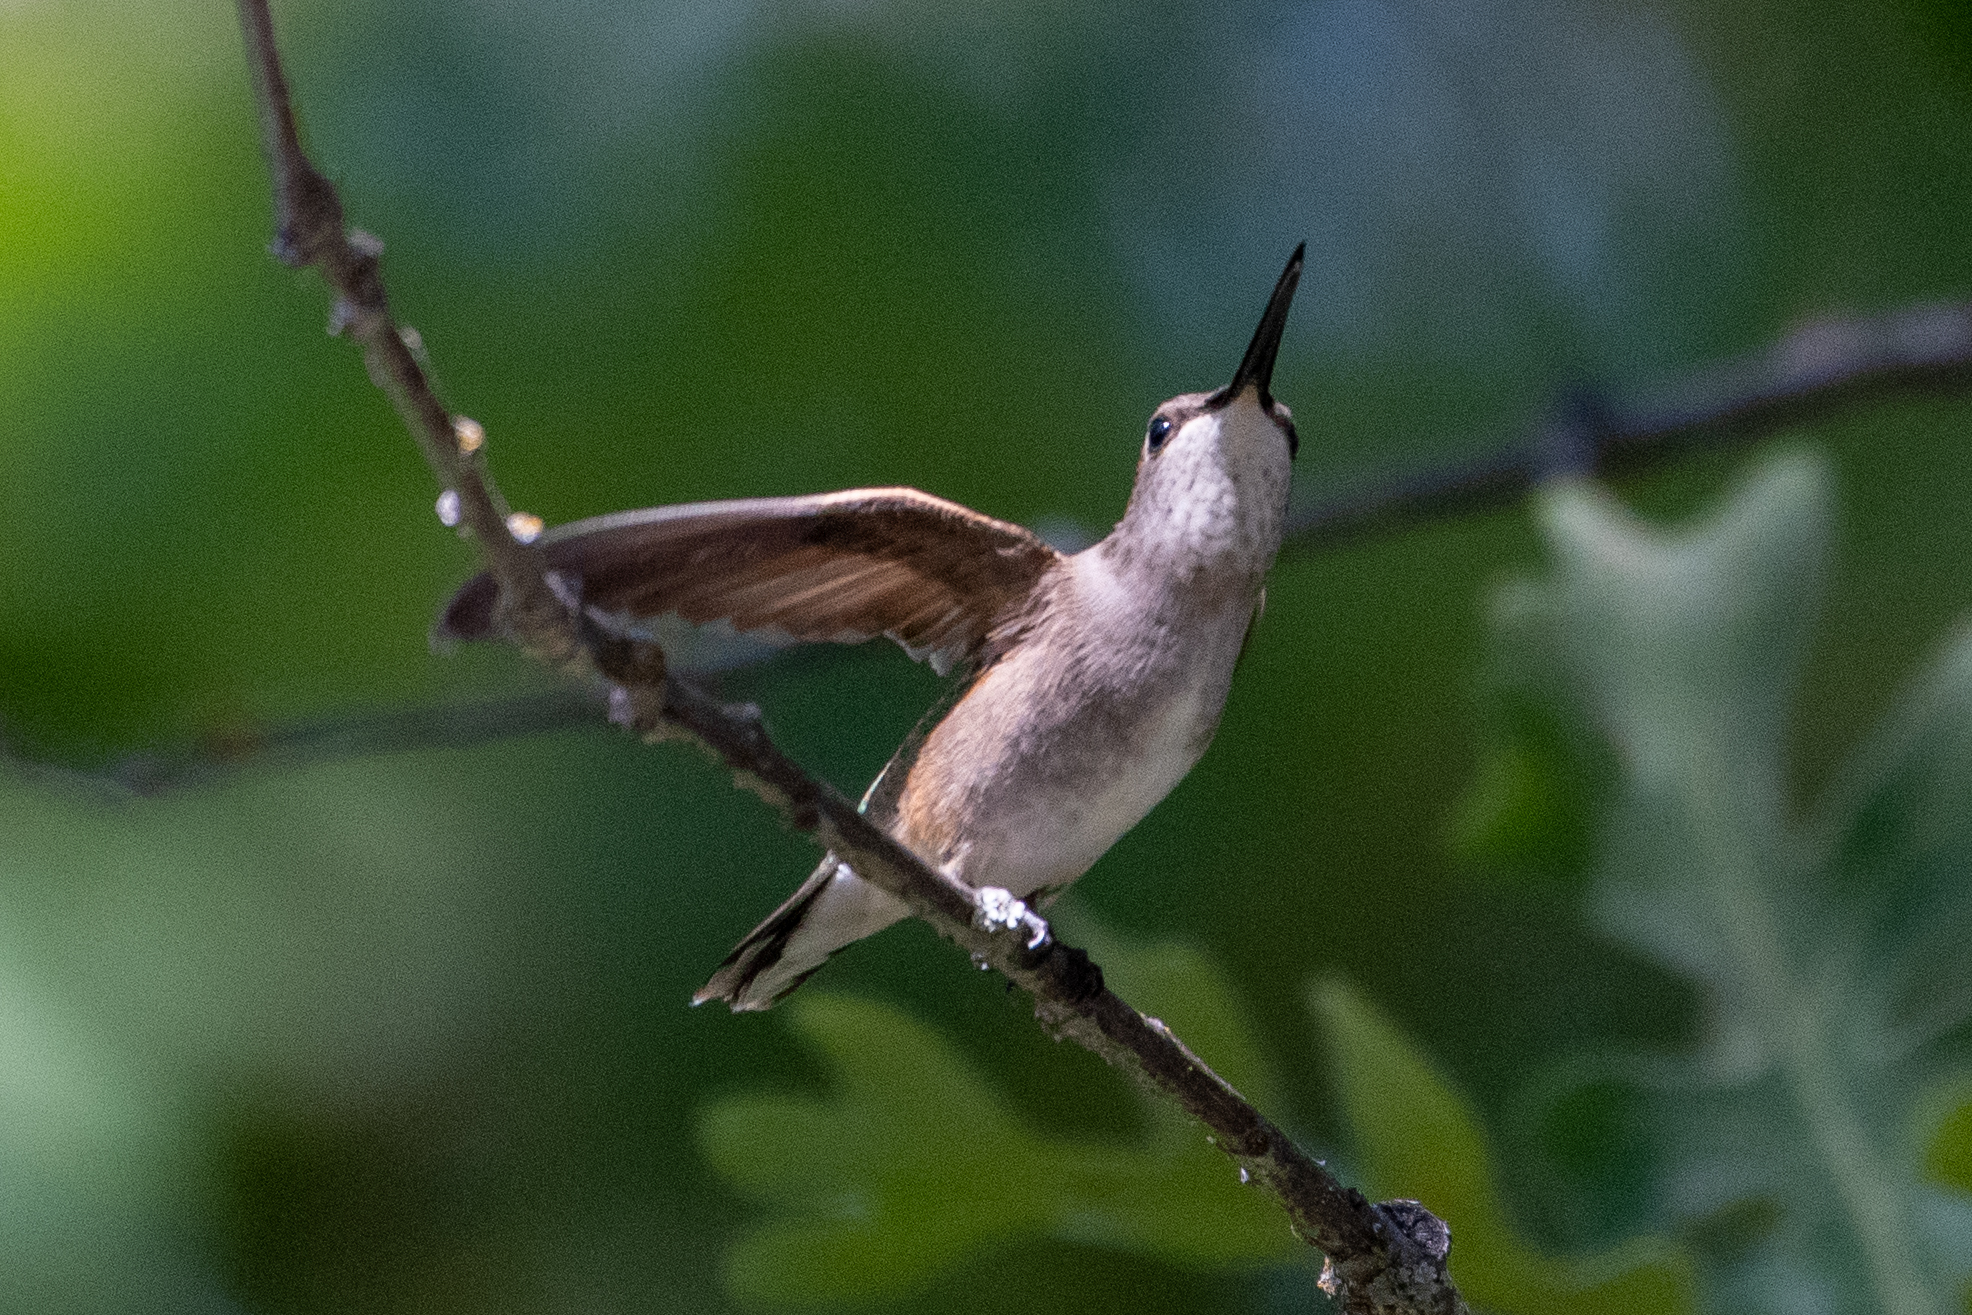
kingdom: Animalia
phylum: Chordata
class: Aves
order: Apodiformes
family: Trochilidae
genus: Archilochus
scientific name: Archilochus alexandri
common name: Black-chinned hummingbird
